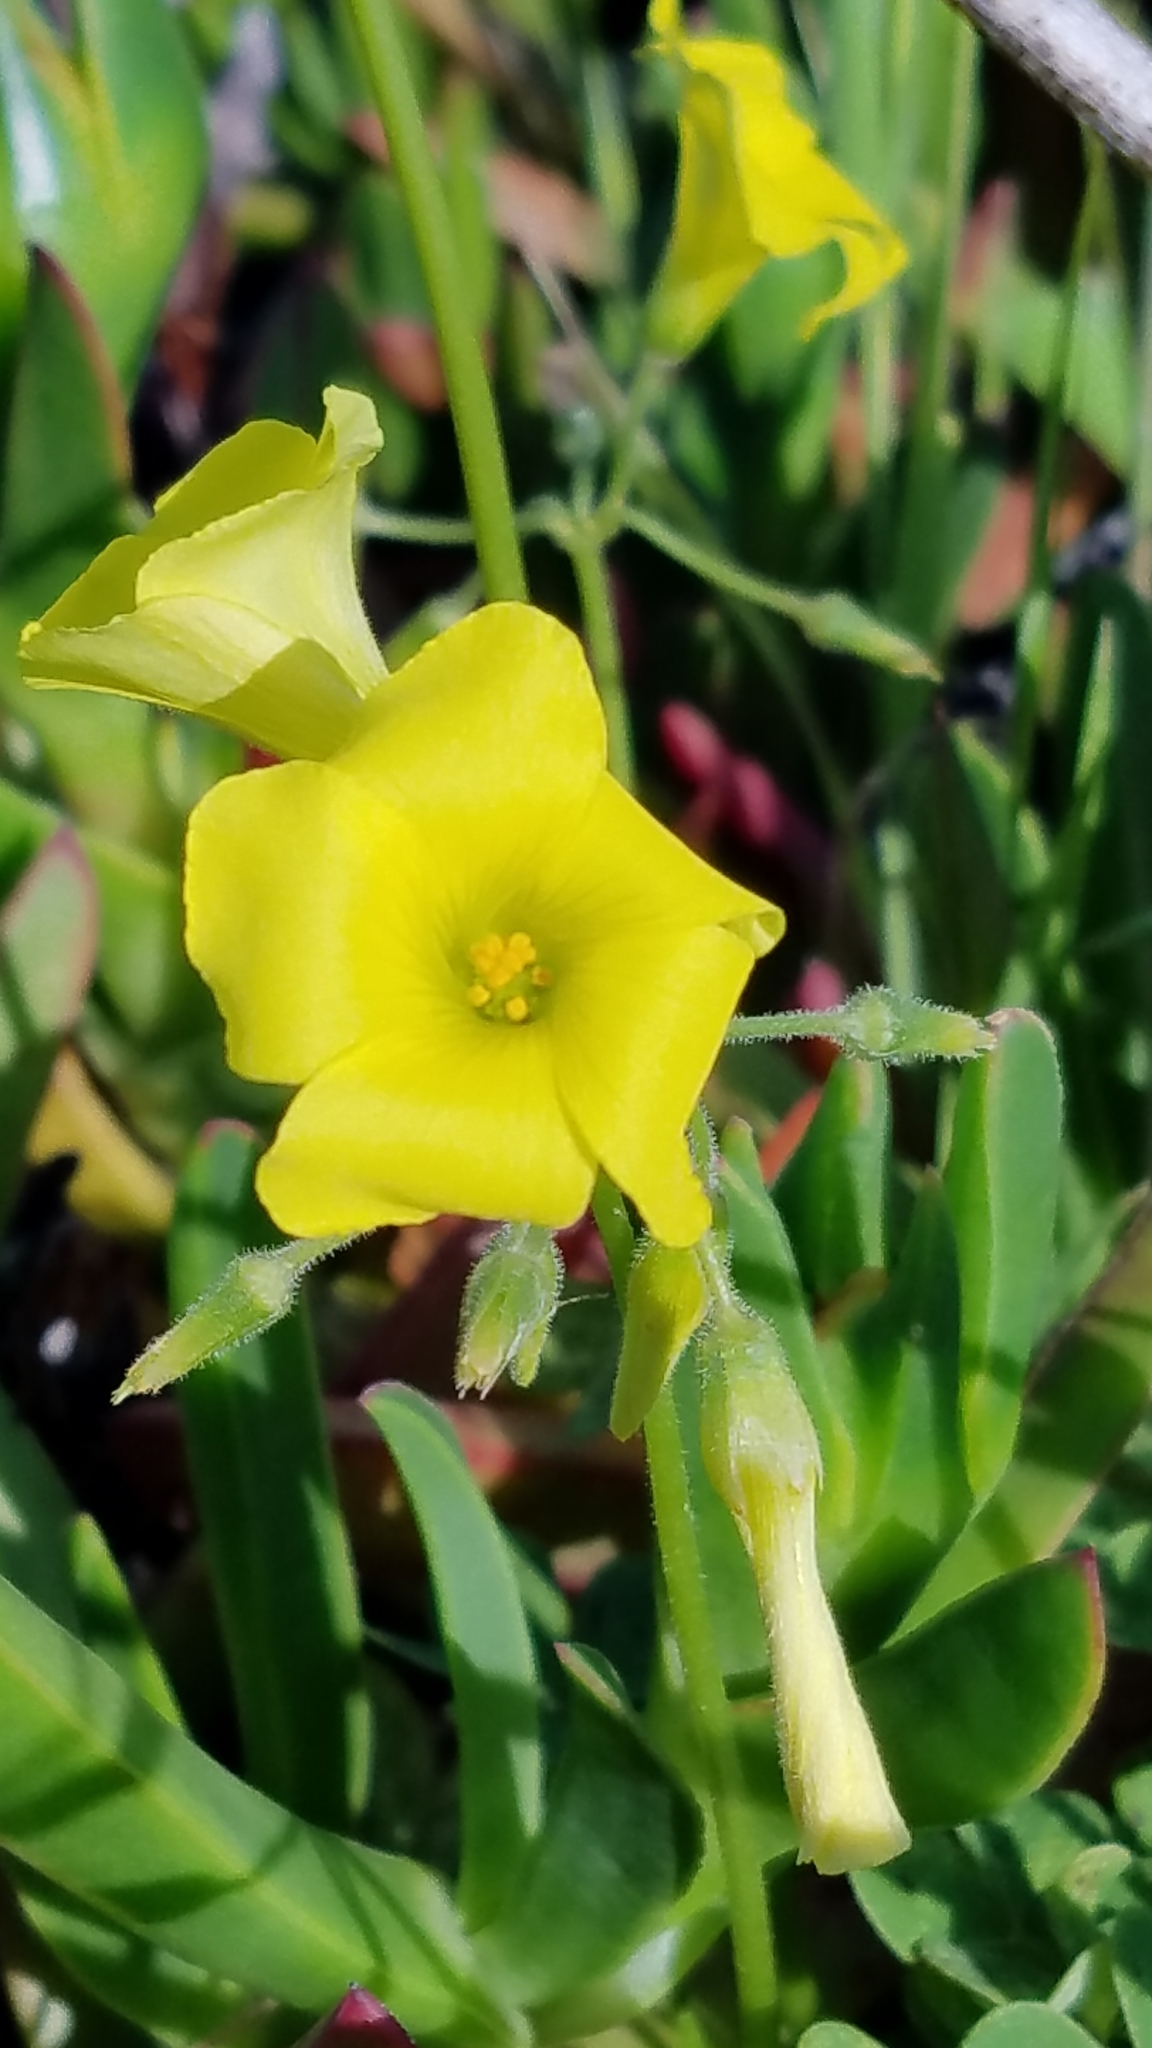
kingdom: Plantae
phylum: Tracheophyta
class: Magnoliopsida
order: Oxalidales
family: Oxalidaceae
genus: Oxalis
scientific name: Oxalis pes-caprae
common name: Bermuda-buttercup
